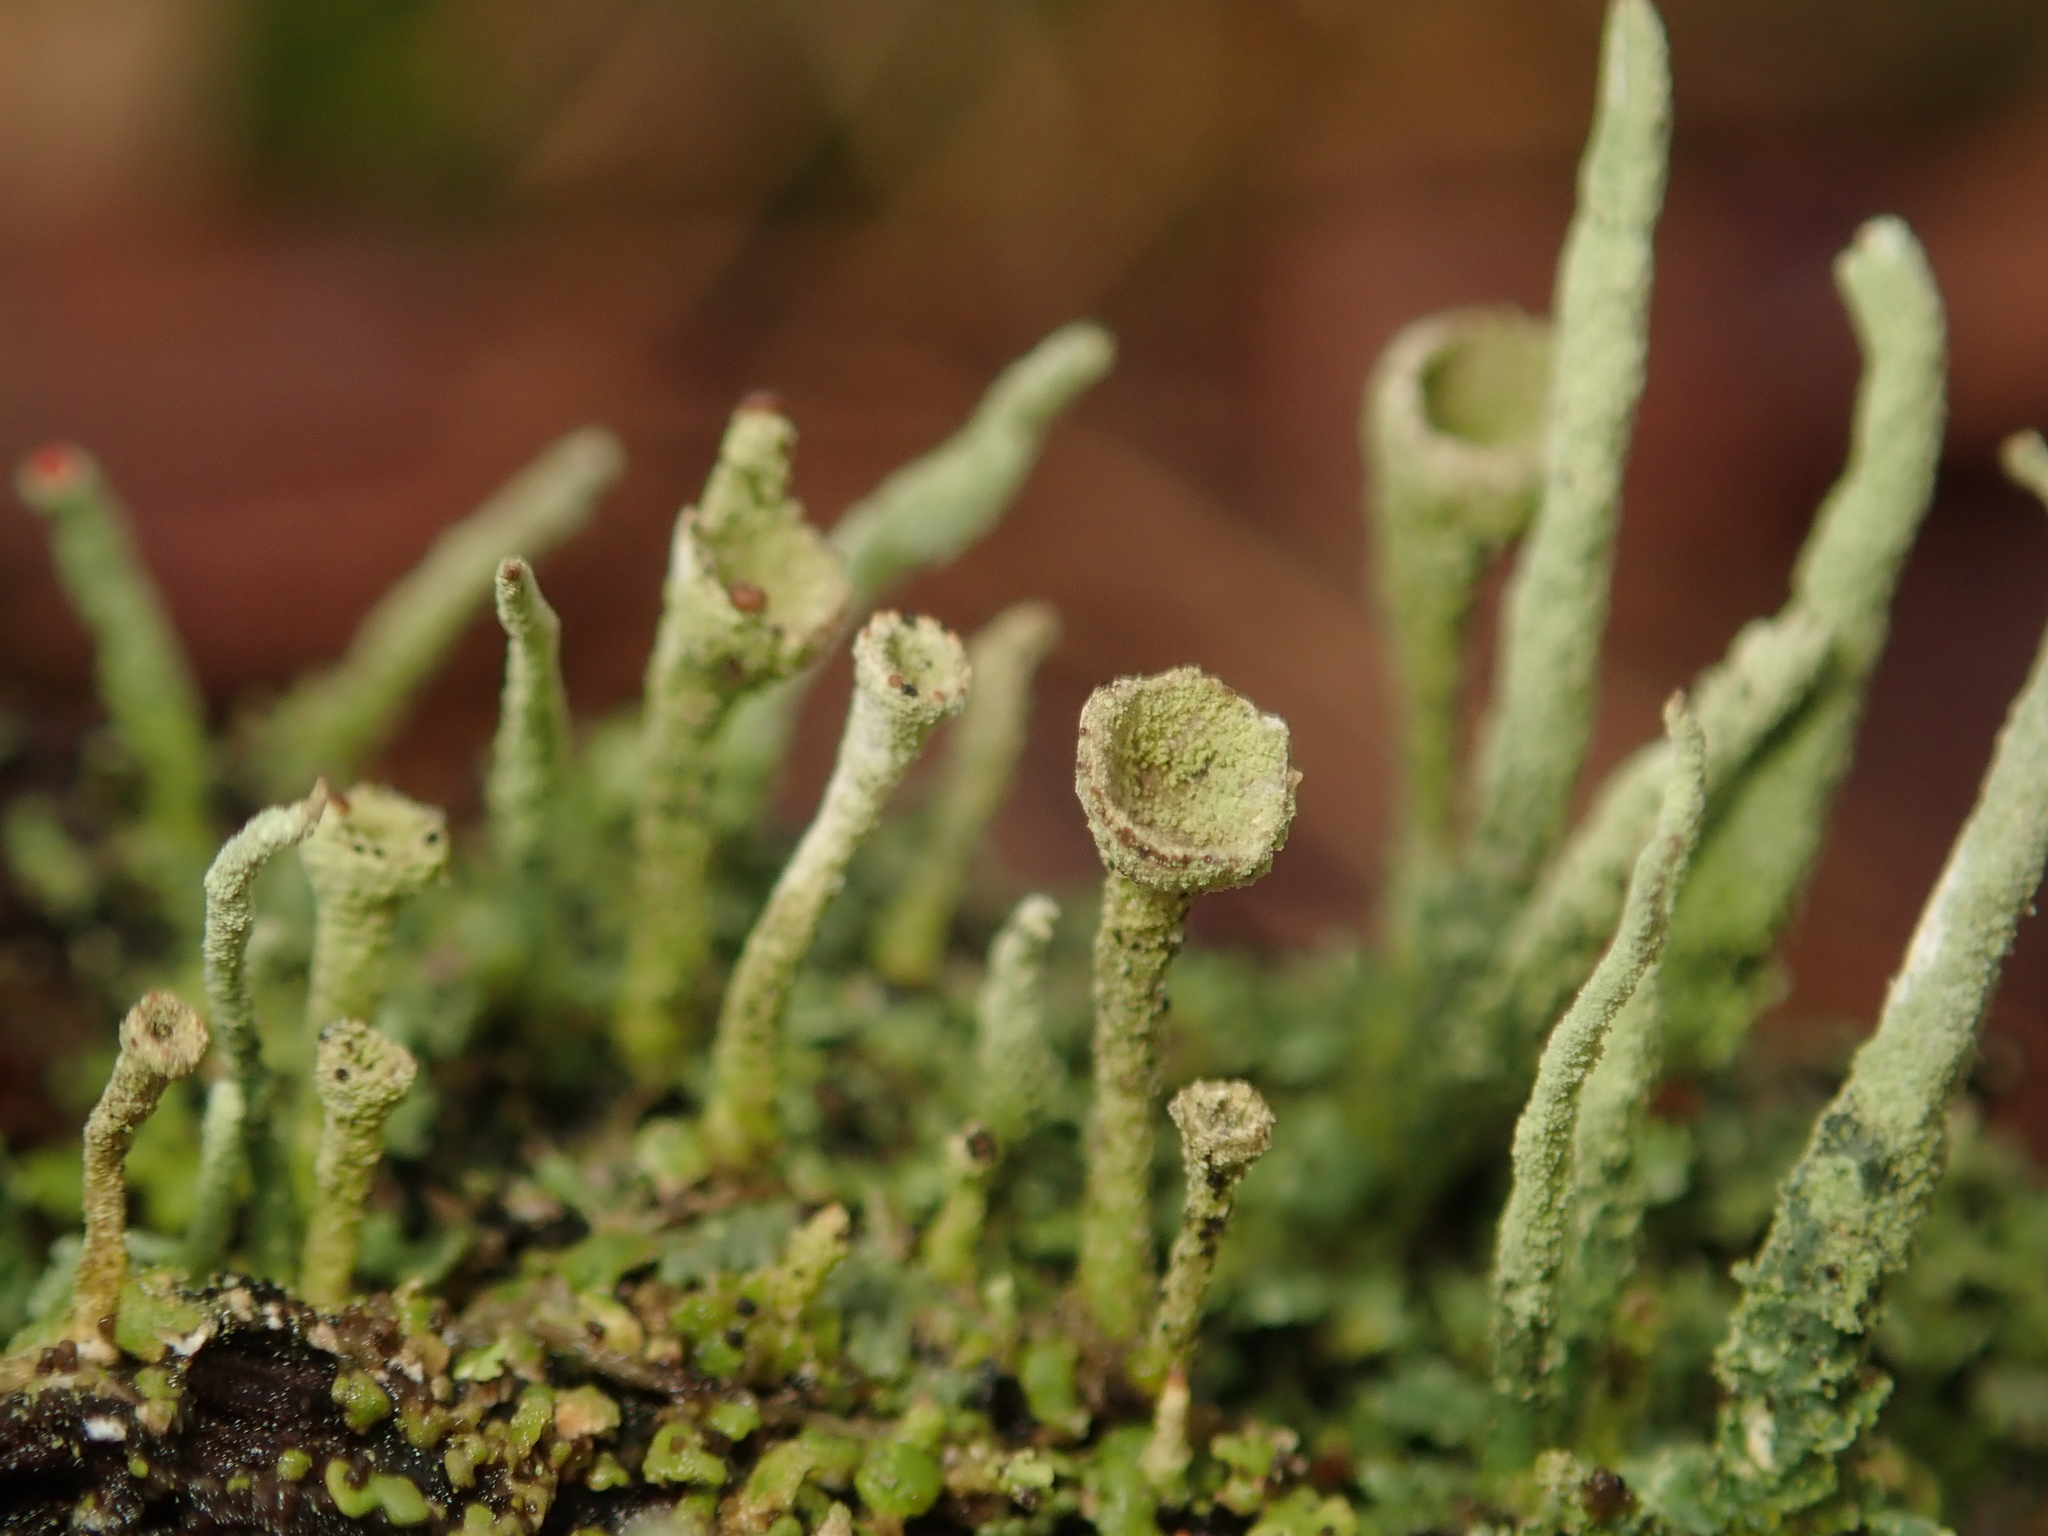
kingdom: Fungi
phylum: Ascomycota
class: Lecanoromycetes
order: Lecanorales
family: Cladoniaceae
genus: Cladonia
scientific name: Cladonia fimbriata
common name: Powdered trumpet lichen
